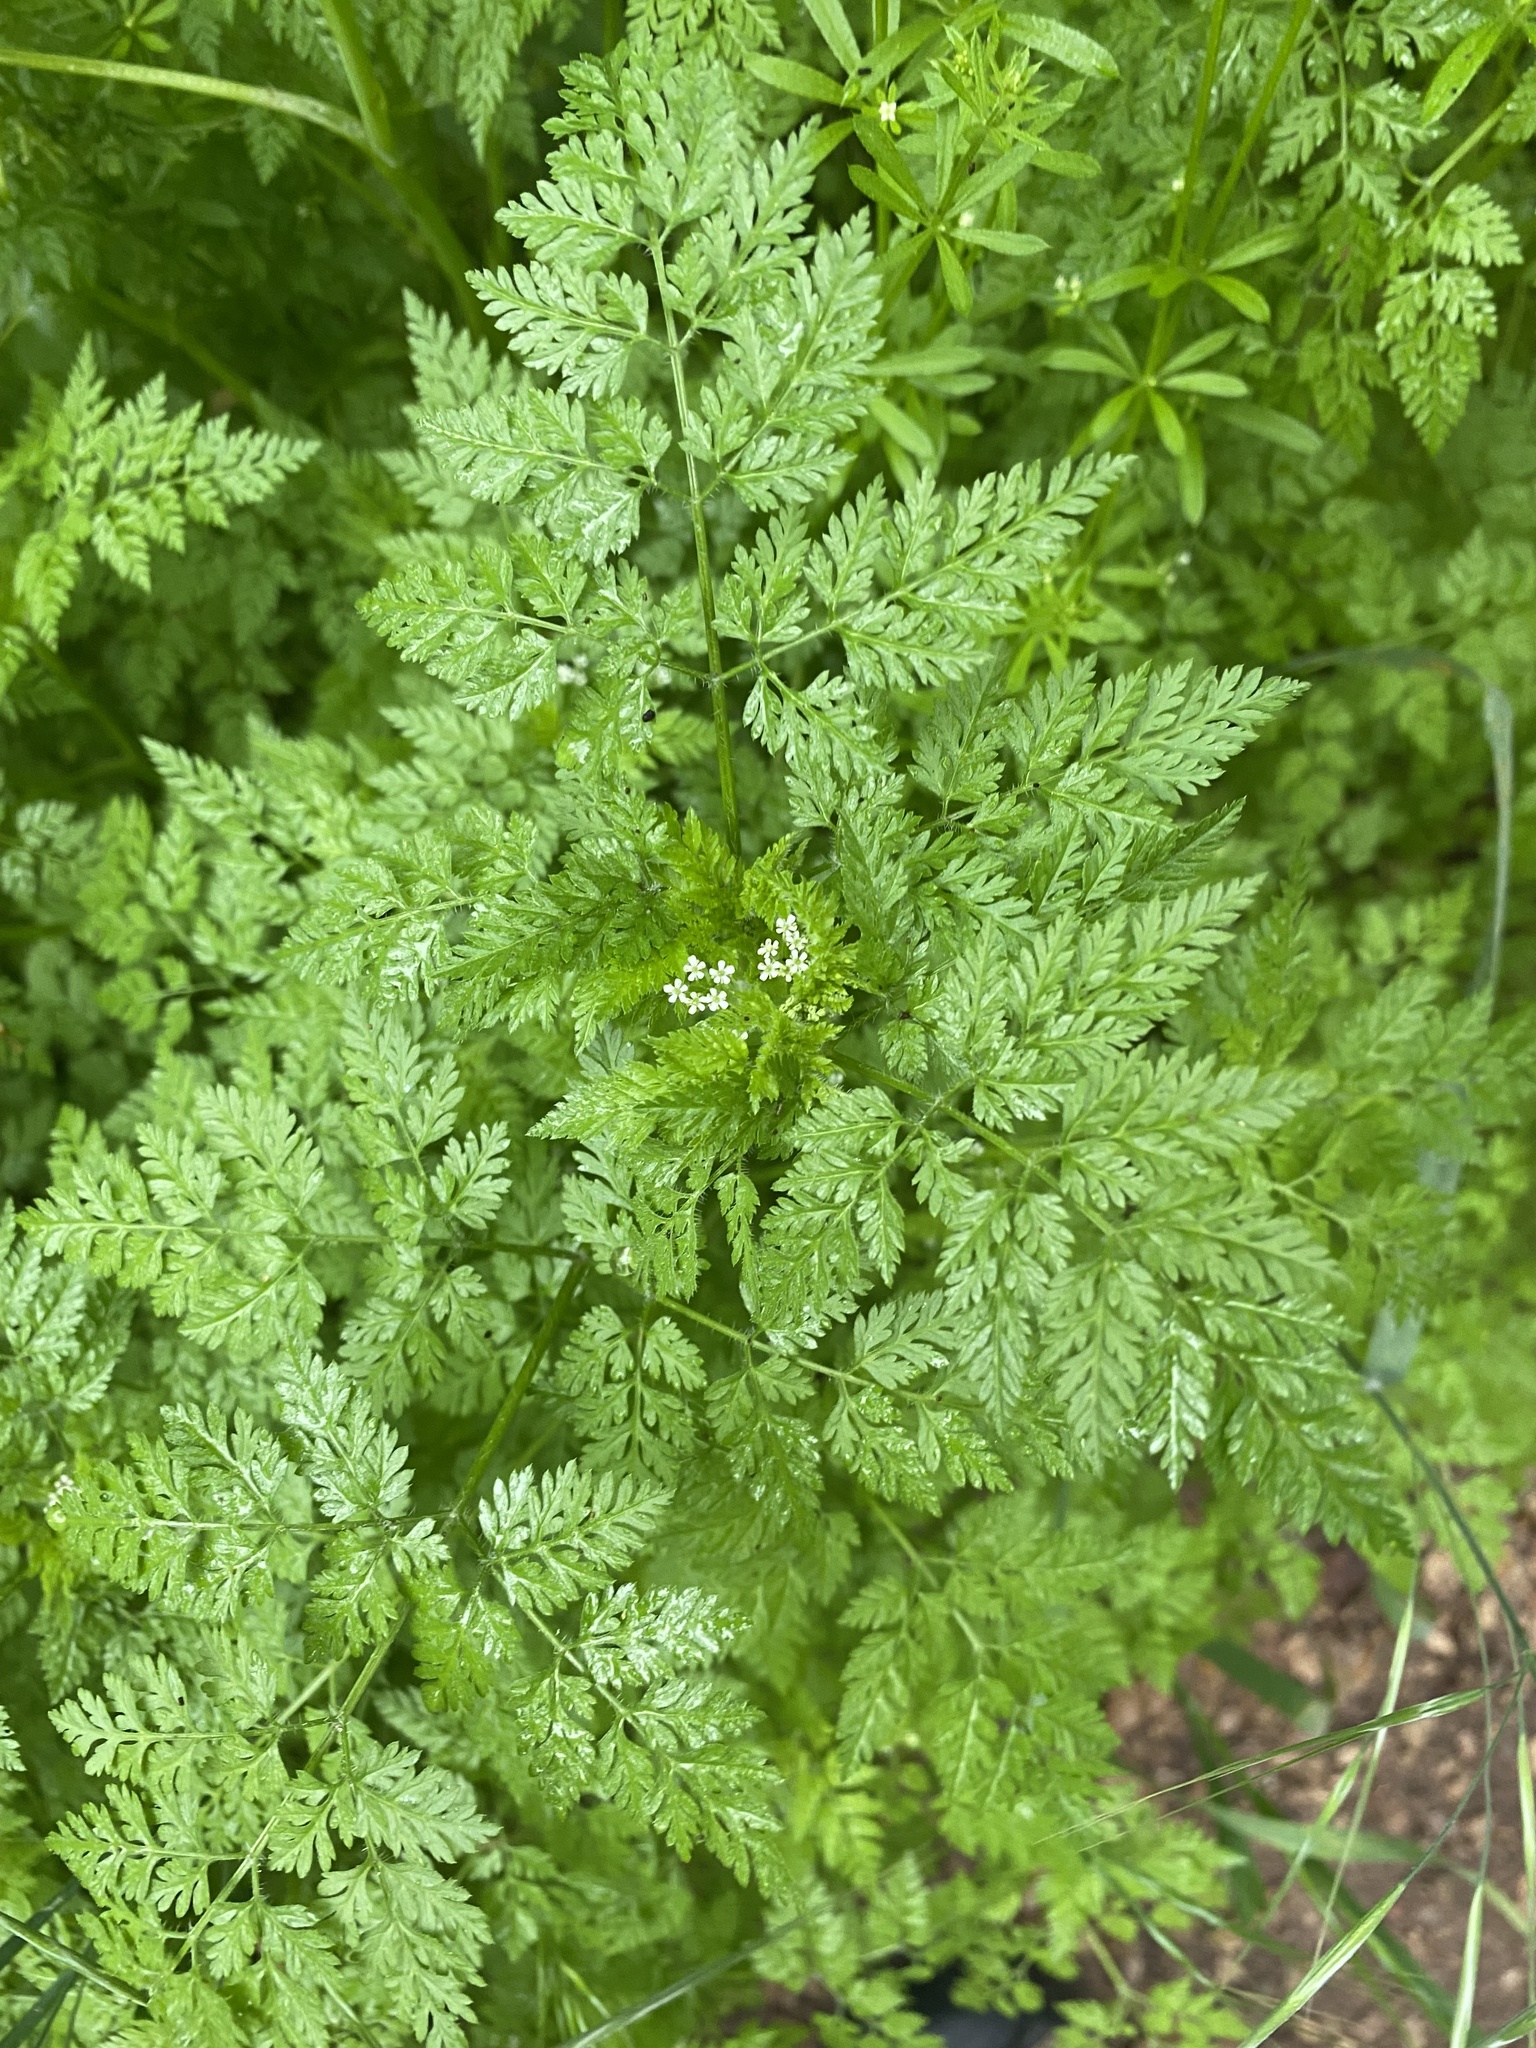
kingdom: Plantae
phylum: Tracheophyta
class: Magnoliopsida
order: Apiales
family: Apiaceae
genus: Anthriscus
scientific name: Anthriscus caucalis
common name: Bur chervil
